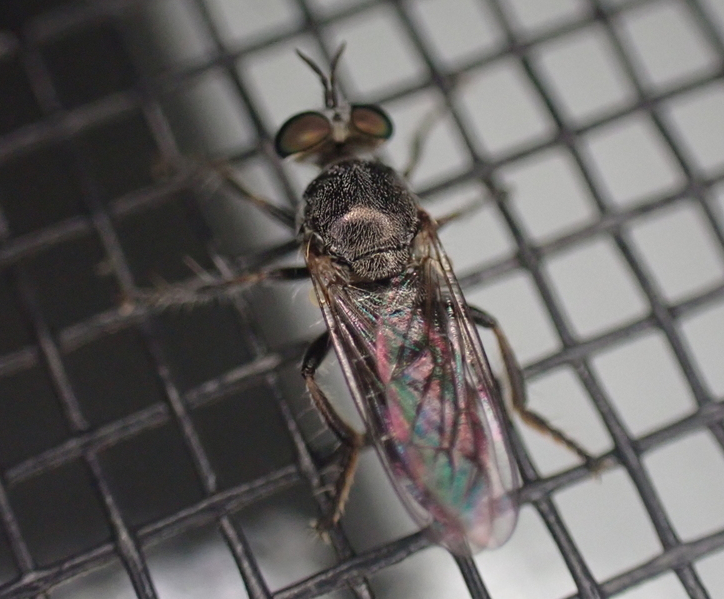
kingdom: Animalia
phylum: Arthropoda
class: Insecta
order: Diptera
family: Asilidae
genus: Atomosia
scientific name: Atomosia puella
